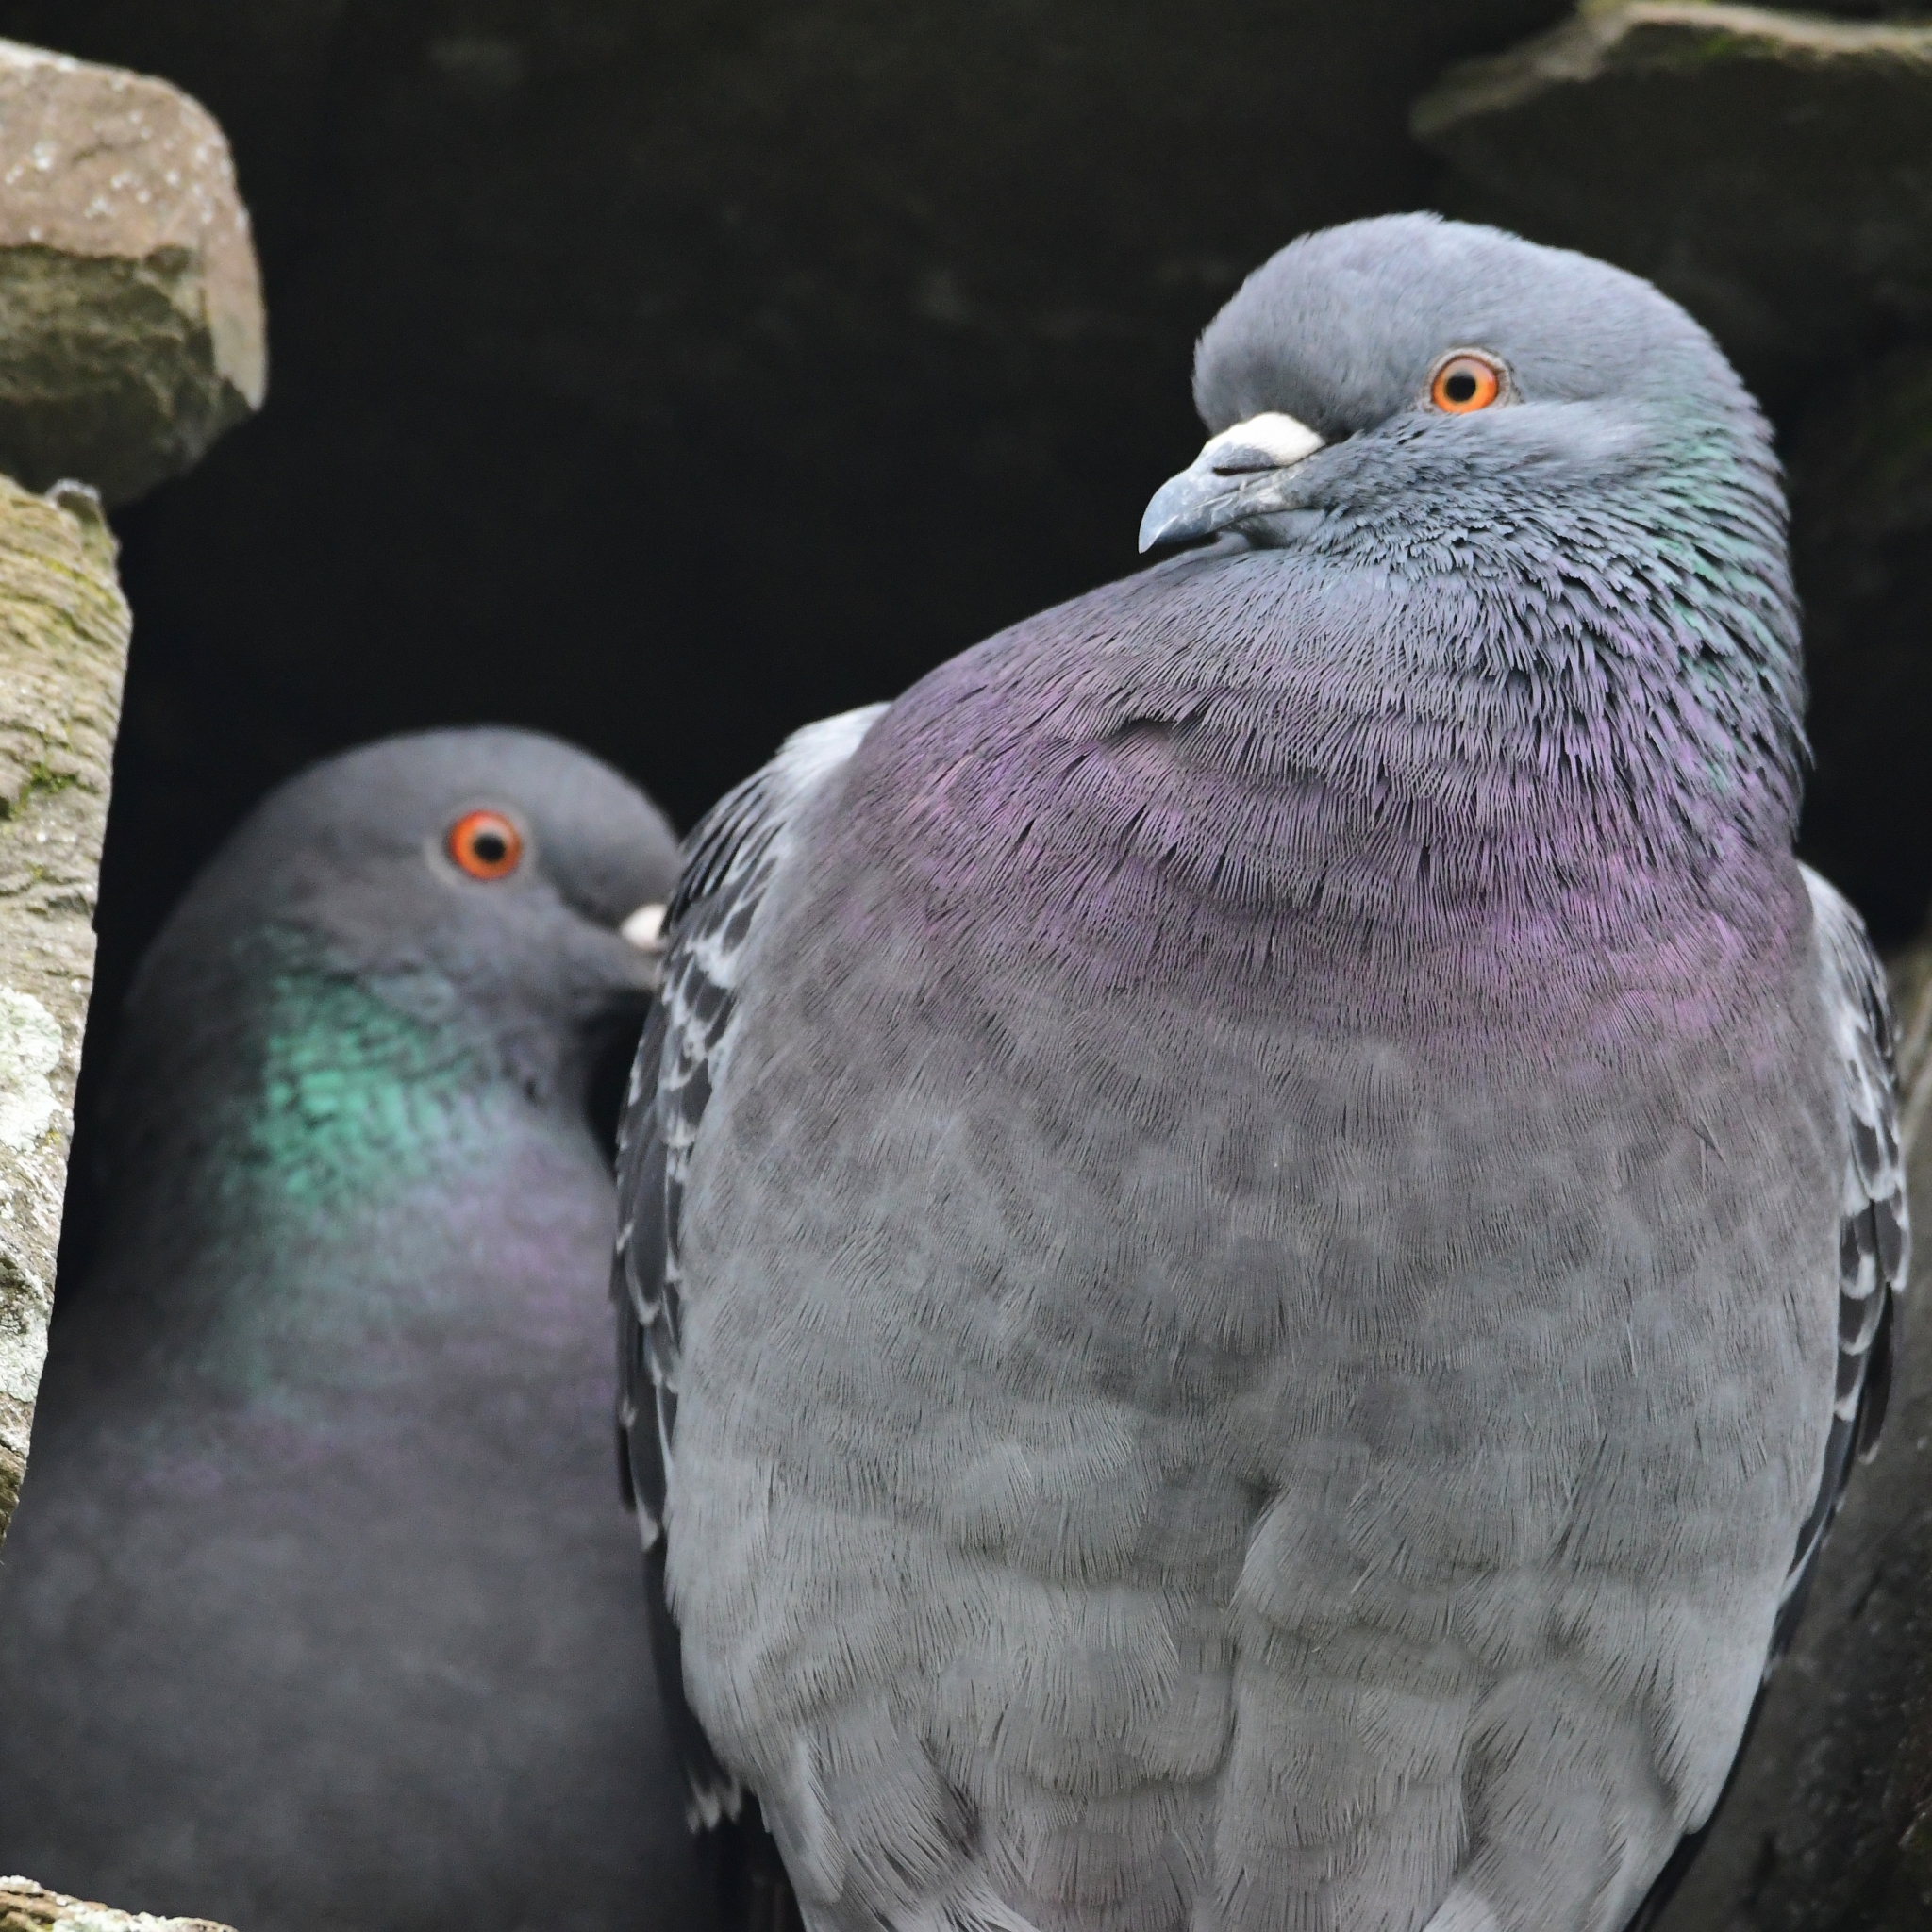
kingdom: Animalia
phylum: Chordata
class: Aves
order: Columbiformes
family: Columbidae
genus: Columba
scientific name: Columba livia
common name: Rock pigeon
